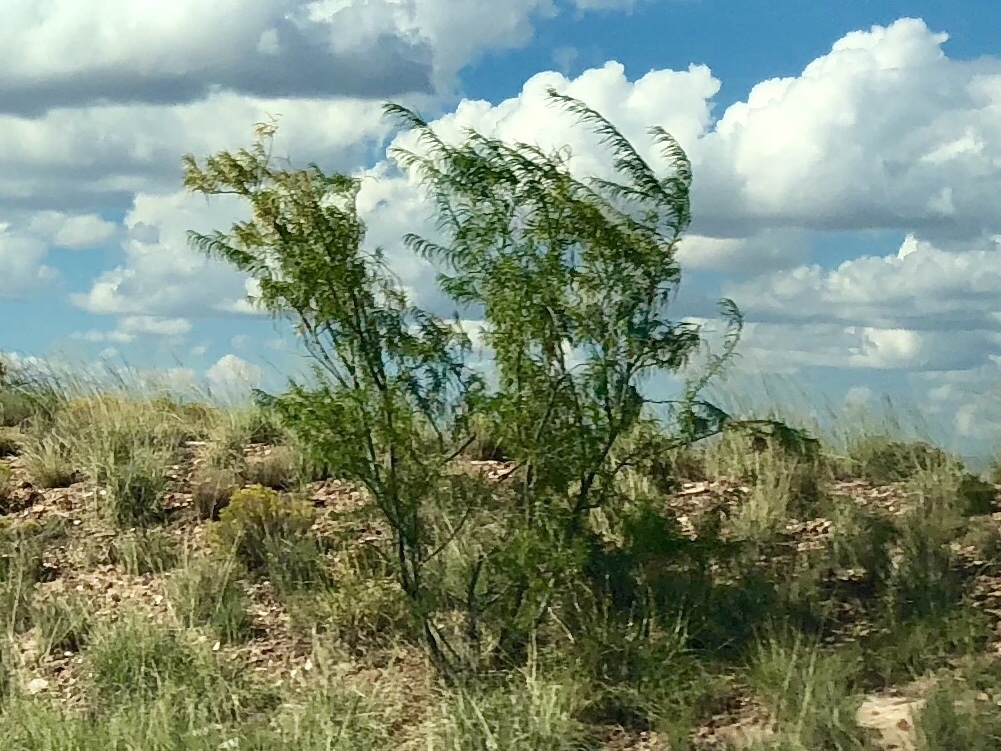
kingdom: Plantae
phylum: Tracheophyta
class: Magnoliopsida
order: Lamiales
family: Bignoniaceae
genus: Chilopsis
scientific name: Chilopsis linearis
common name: Desert-willow
